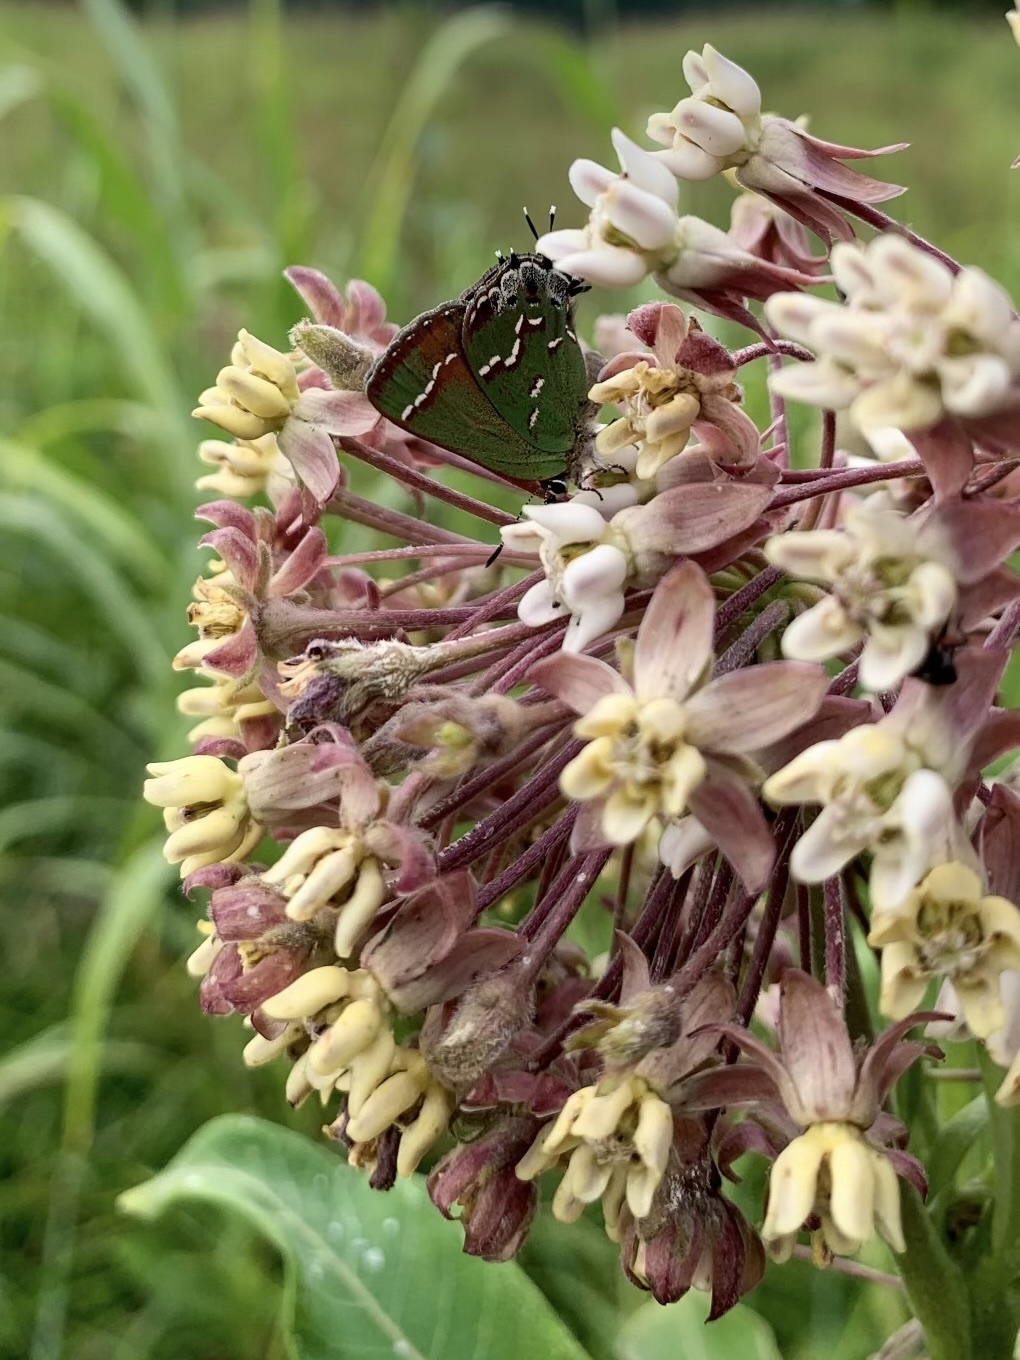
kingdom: Animalia
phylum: Arthropoda
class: Insecta
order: Lepidoptera
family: Lycaenidae
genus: Mitoura
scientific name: Mitoura gryneus
